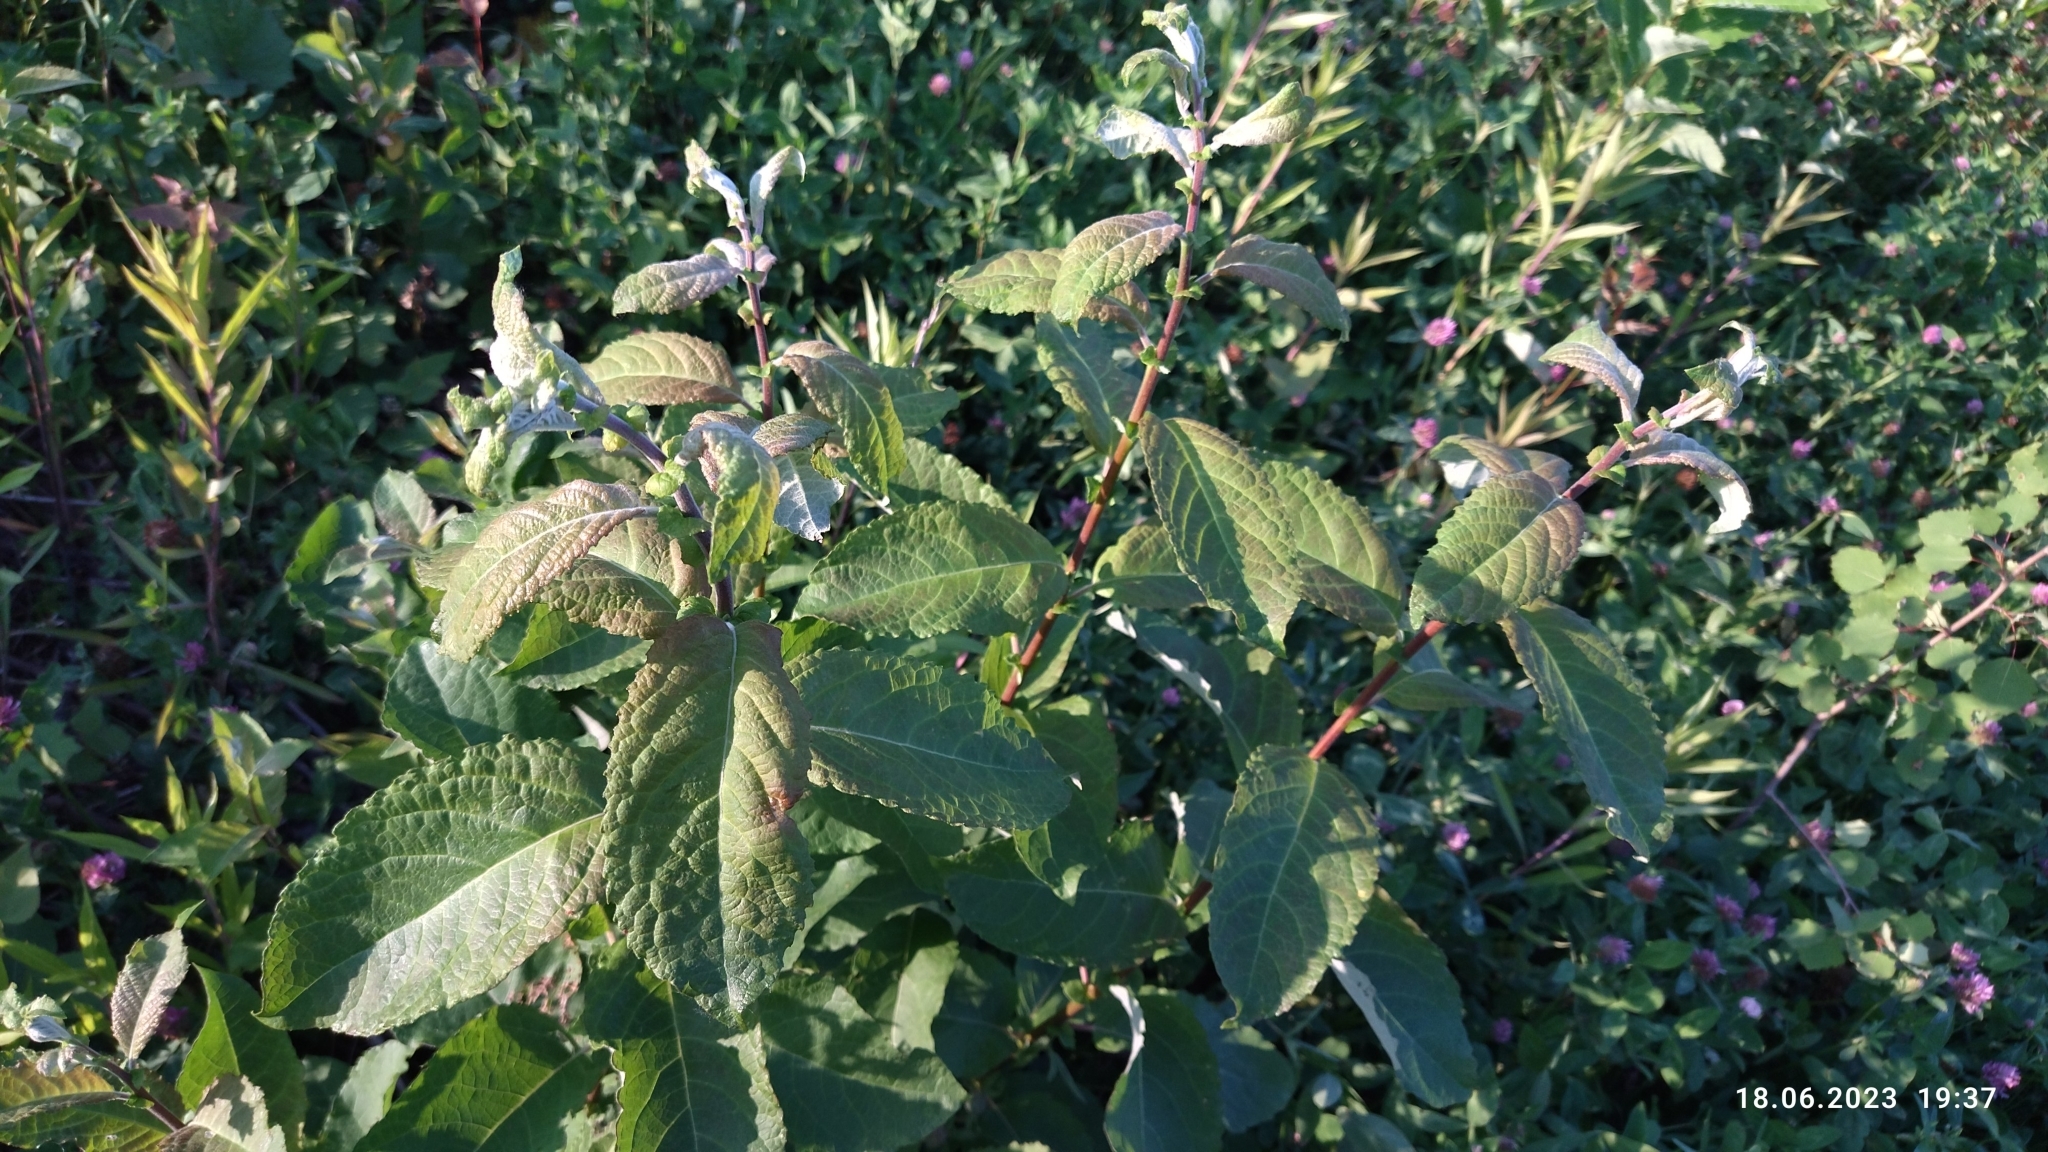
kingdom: Plantae
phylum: Tracheophyta
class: Magnoliopsida
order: Malpighiales
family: Salicaceae
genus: Salix
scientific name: Salix caprea
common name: Goat willow
